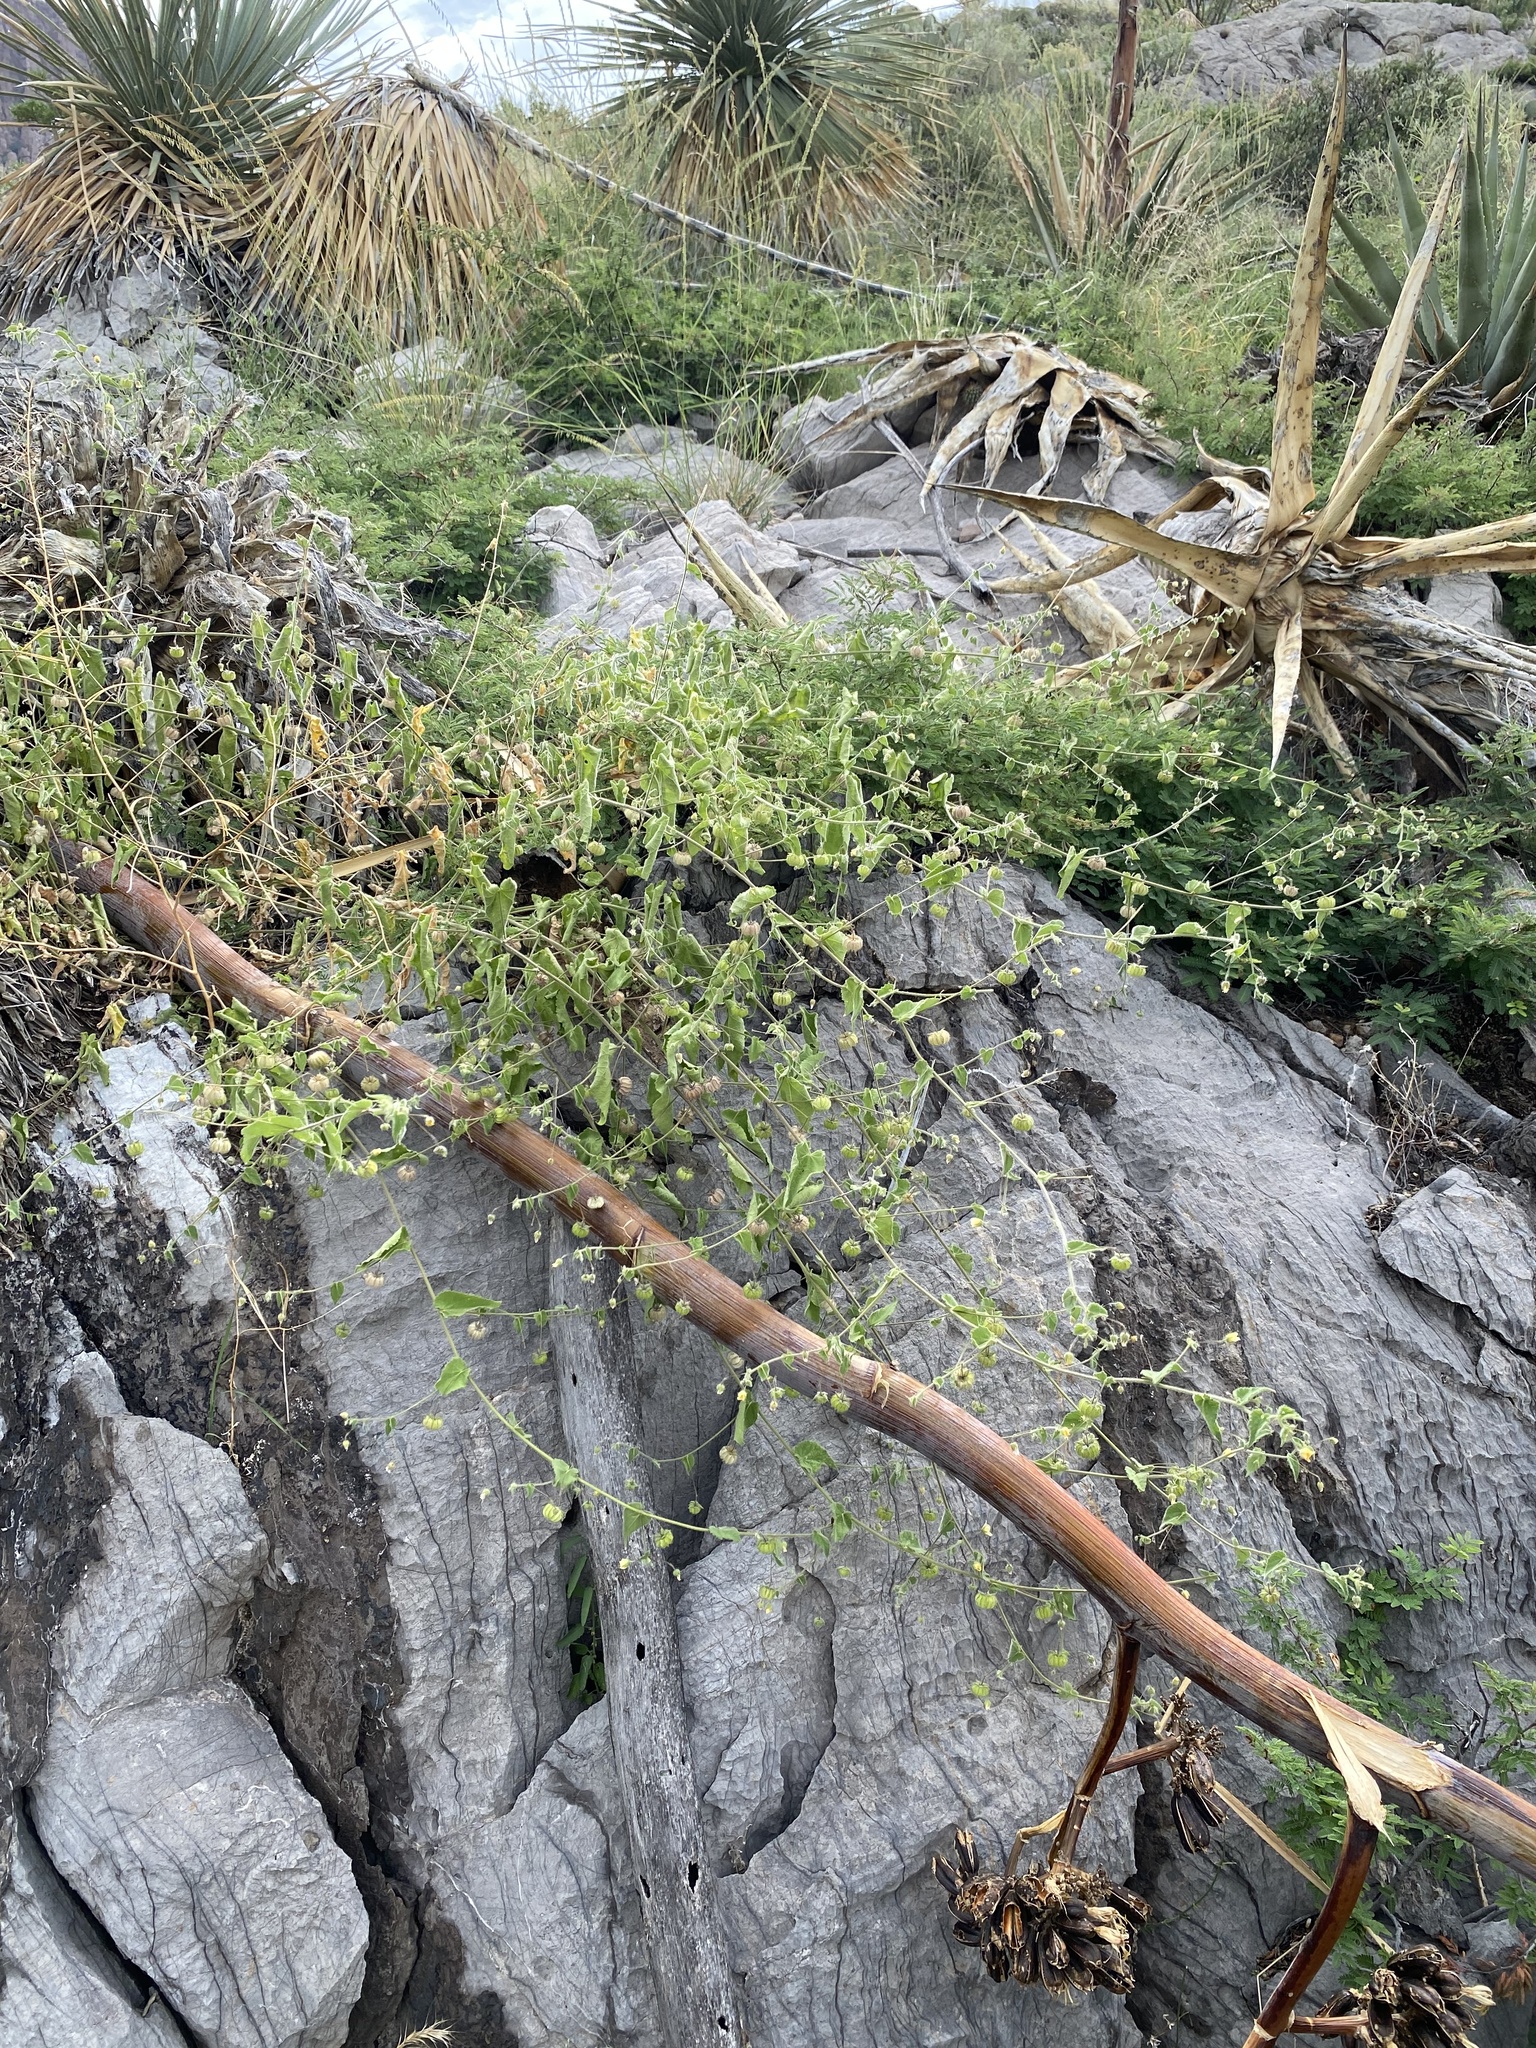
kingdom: Plantae
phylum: Tracheophyta
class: Magnoliopsida
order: Malvales
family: Malvaceae
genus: Herissantia
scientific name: Herissantia crispa
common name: Bladdermallow
